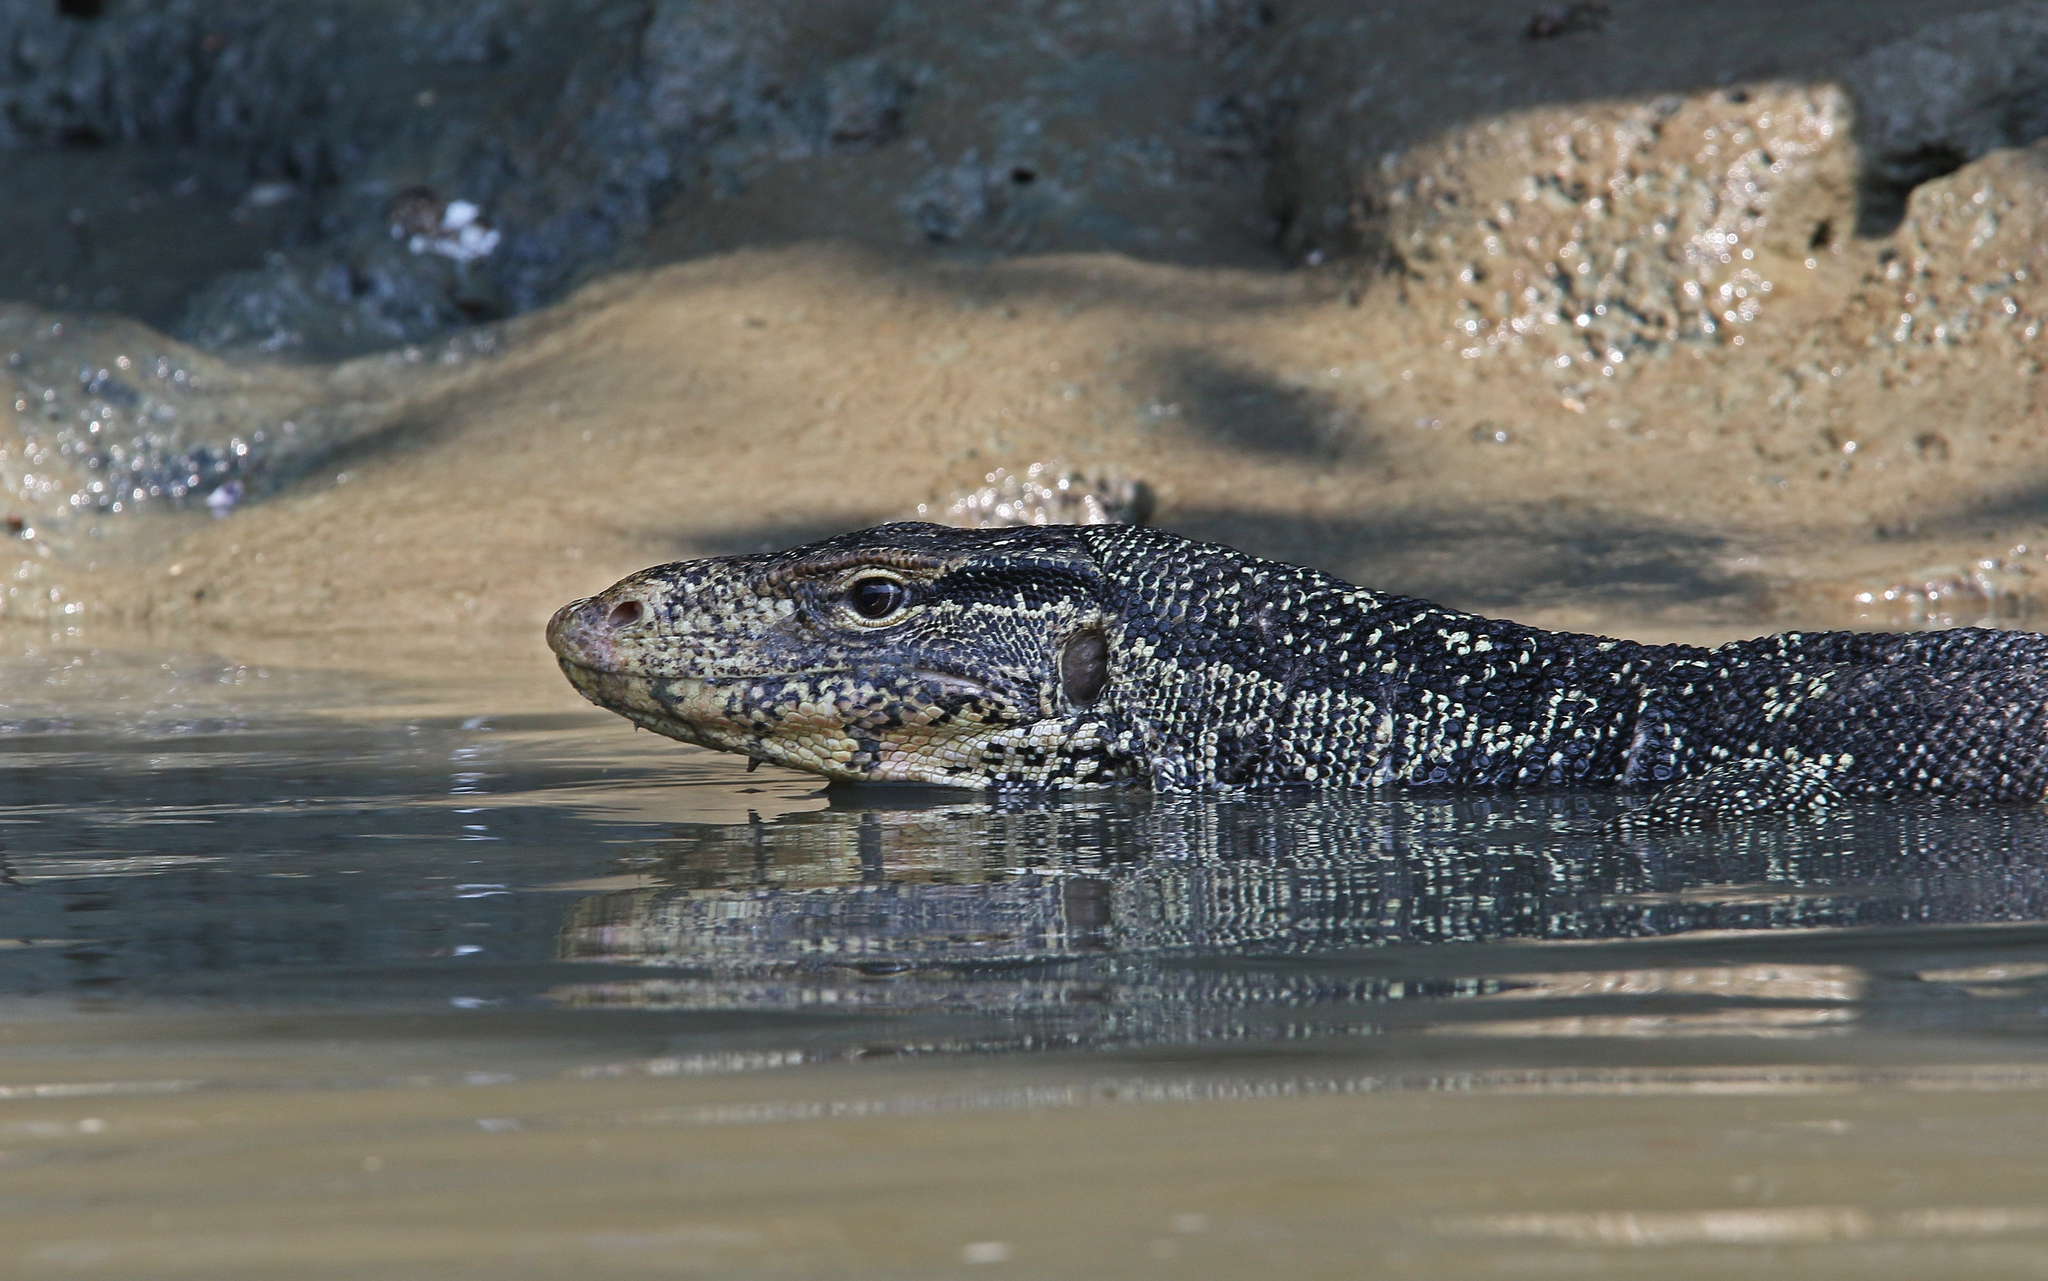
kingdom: Animalia
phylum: Chordata
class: Squamata
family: Varanidae
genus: Varanus
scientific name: Varanus salvator
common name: Common water monitor
